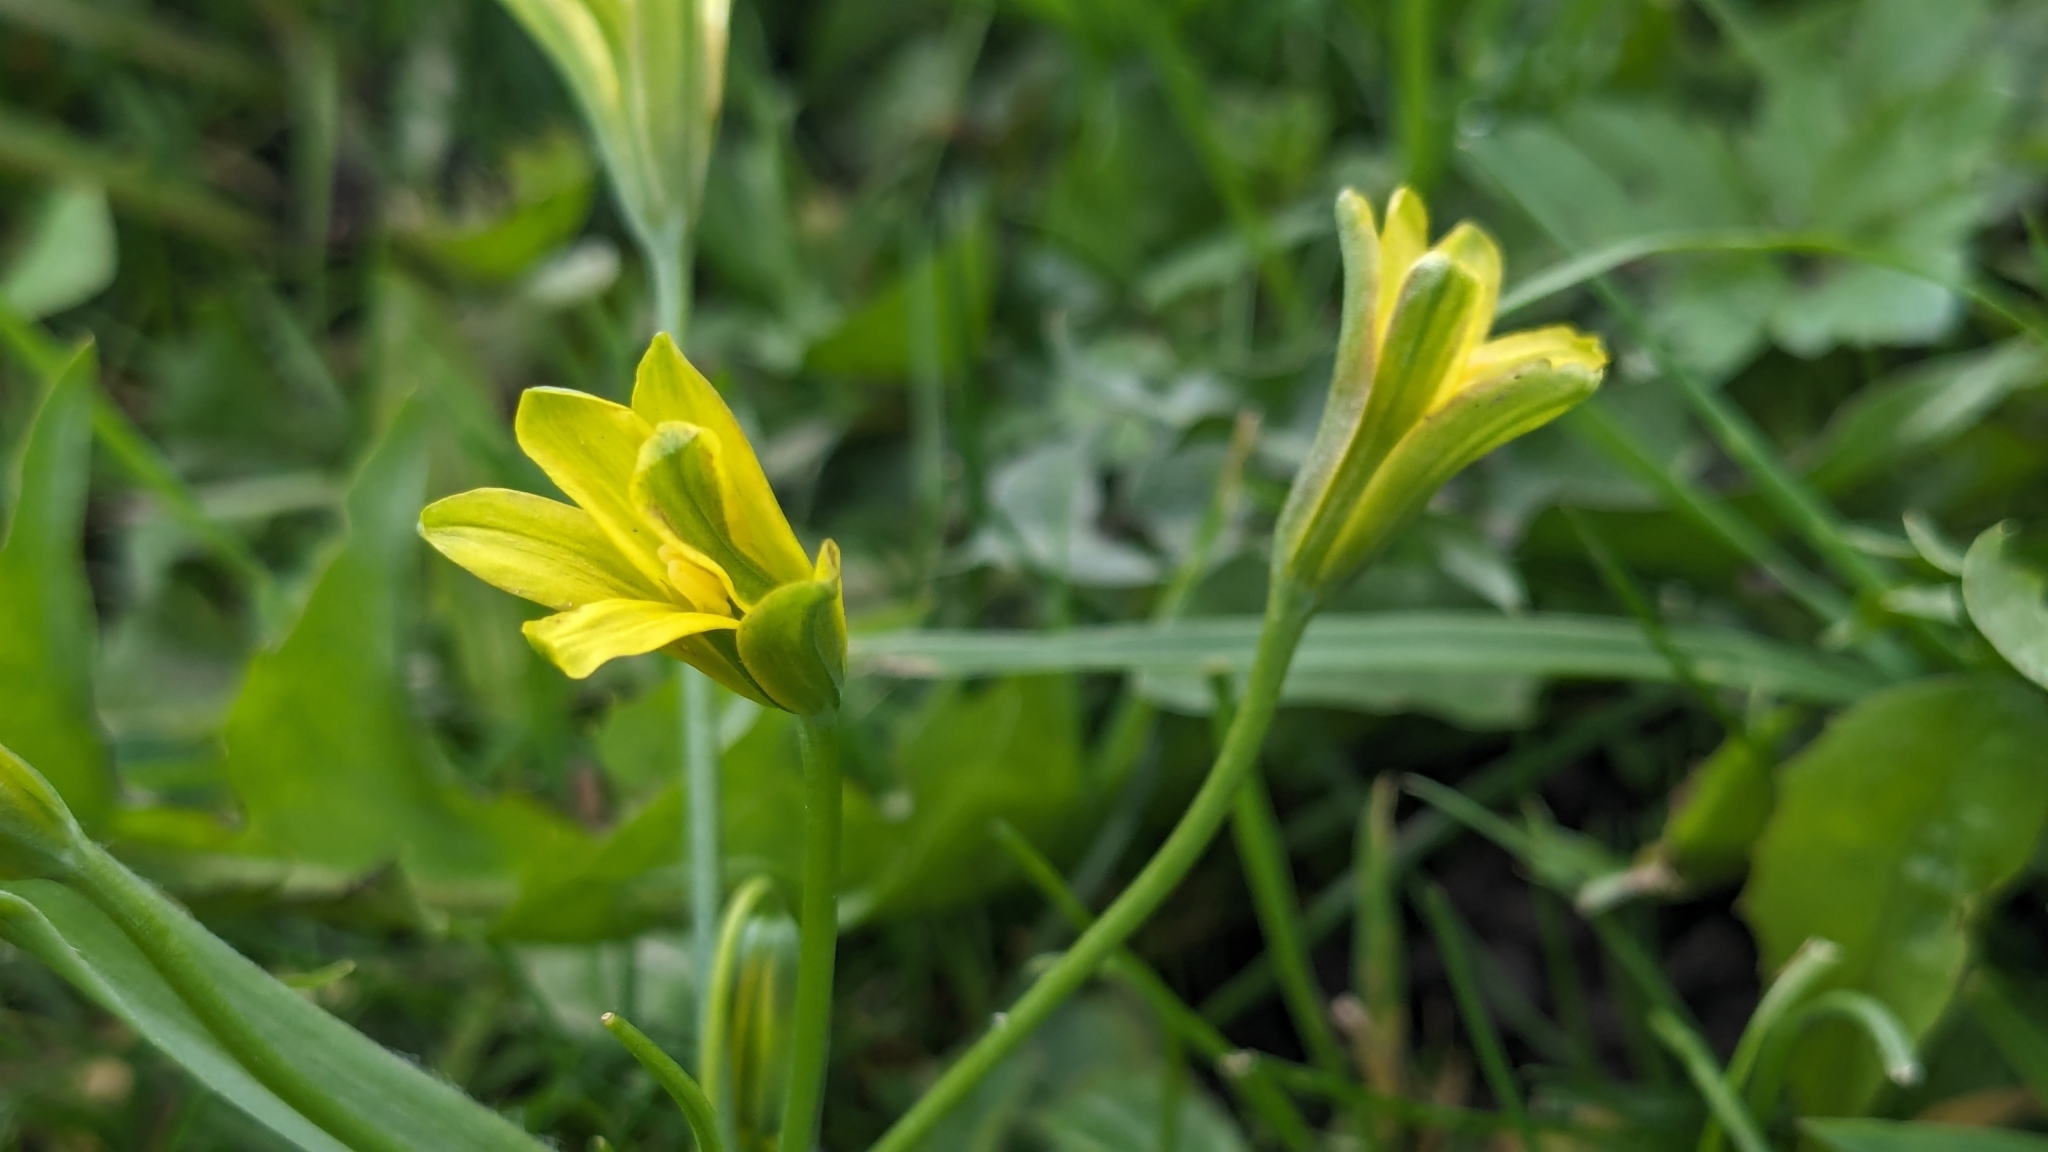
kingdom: Plantae
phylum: Tracheophyta
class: Liliopsida
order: Liliales
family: Liliaceae
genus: Gagea
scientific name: Gagea lutea
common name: Yellow star-of-bethlehem
